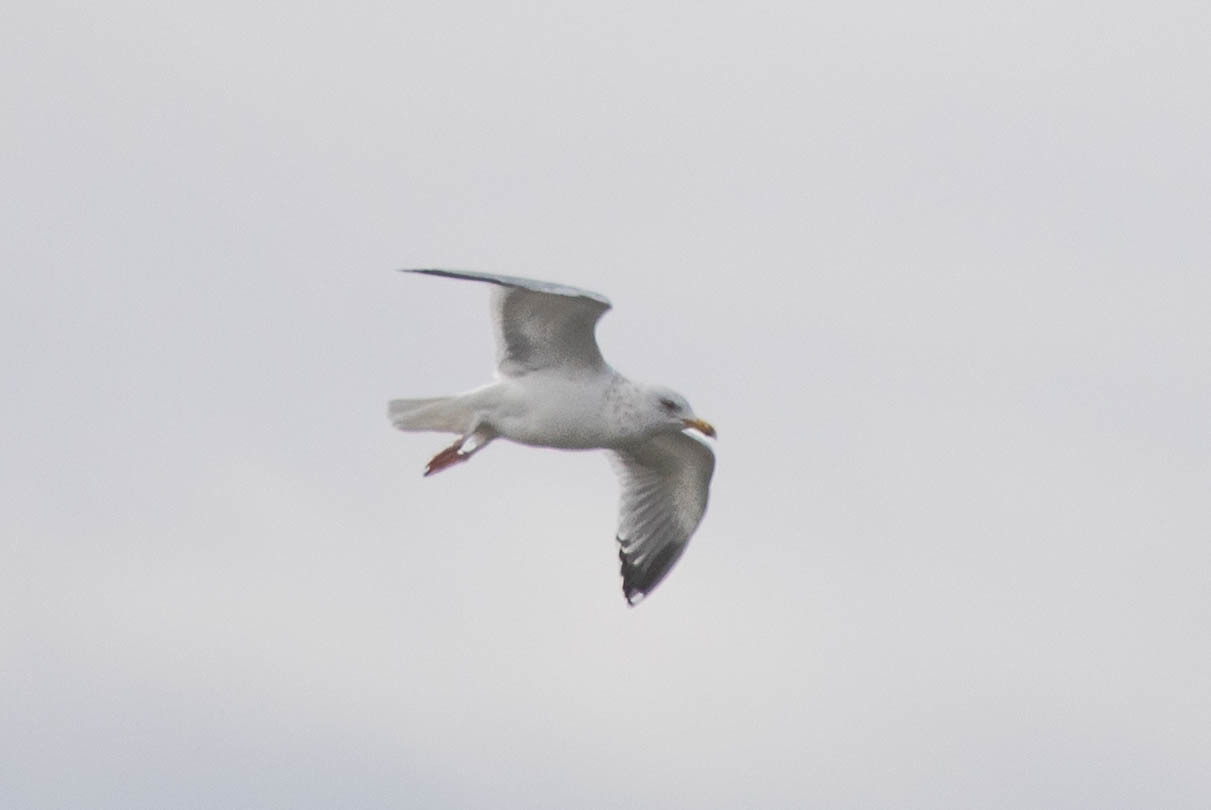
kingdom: Animalia
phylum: Chordata
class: Aves
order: Charadriiformes
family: Laridae
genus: Larus
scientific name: Larus argentatus
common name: Herring gull
